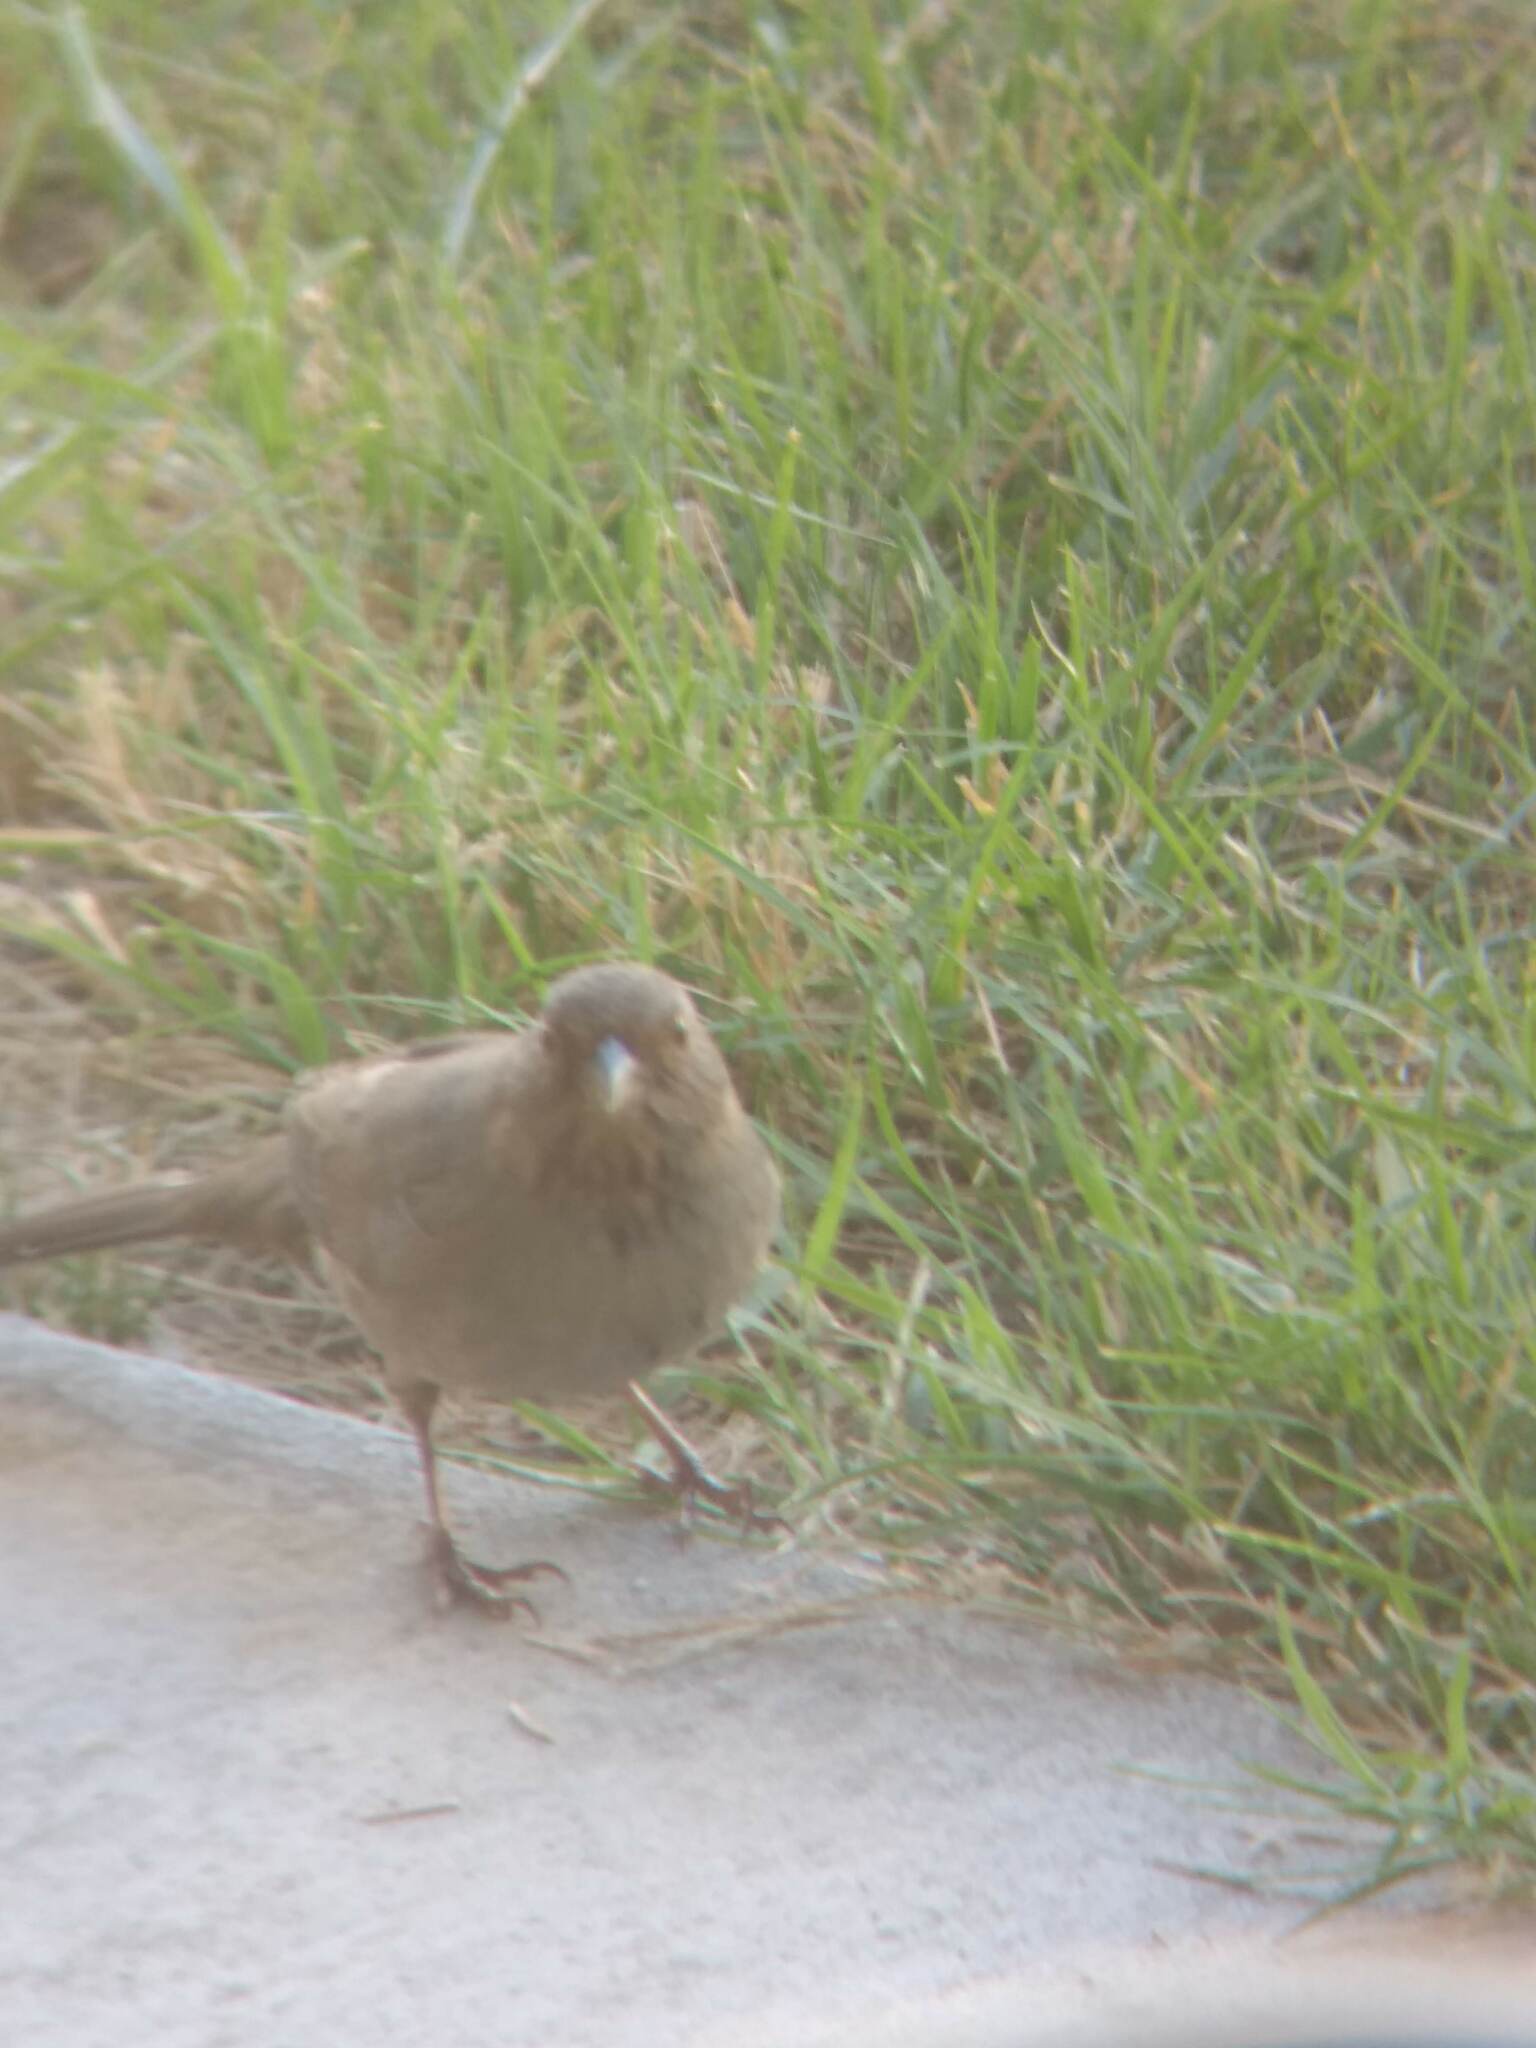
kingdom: Animalia
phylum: Chordata
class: Aves
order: Passeriformes
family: Passerellidae
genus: Melozone
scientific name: Melozone crissalis
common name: California towhee
